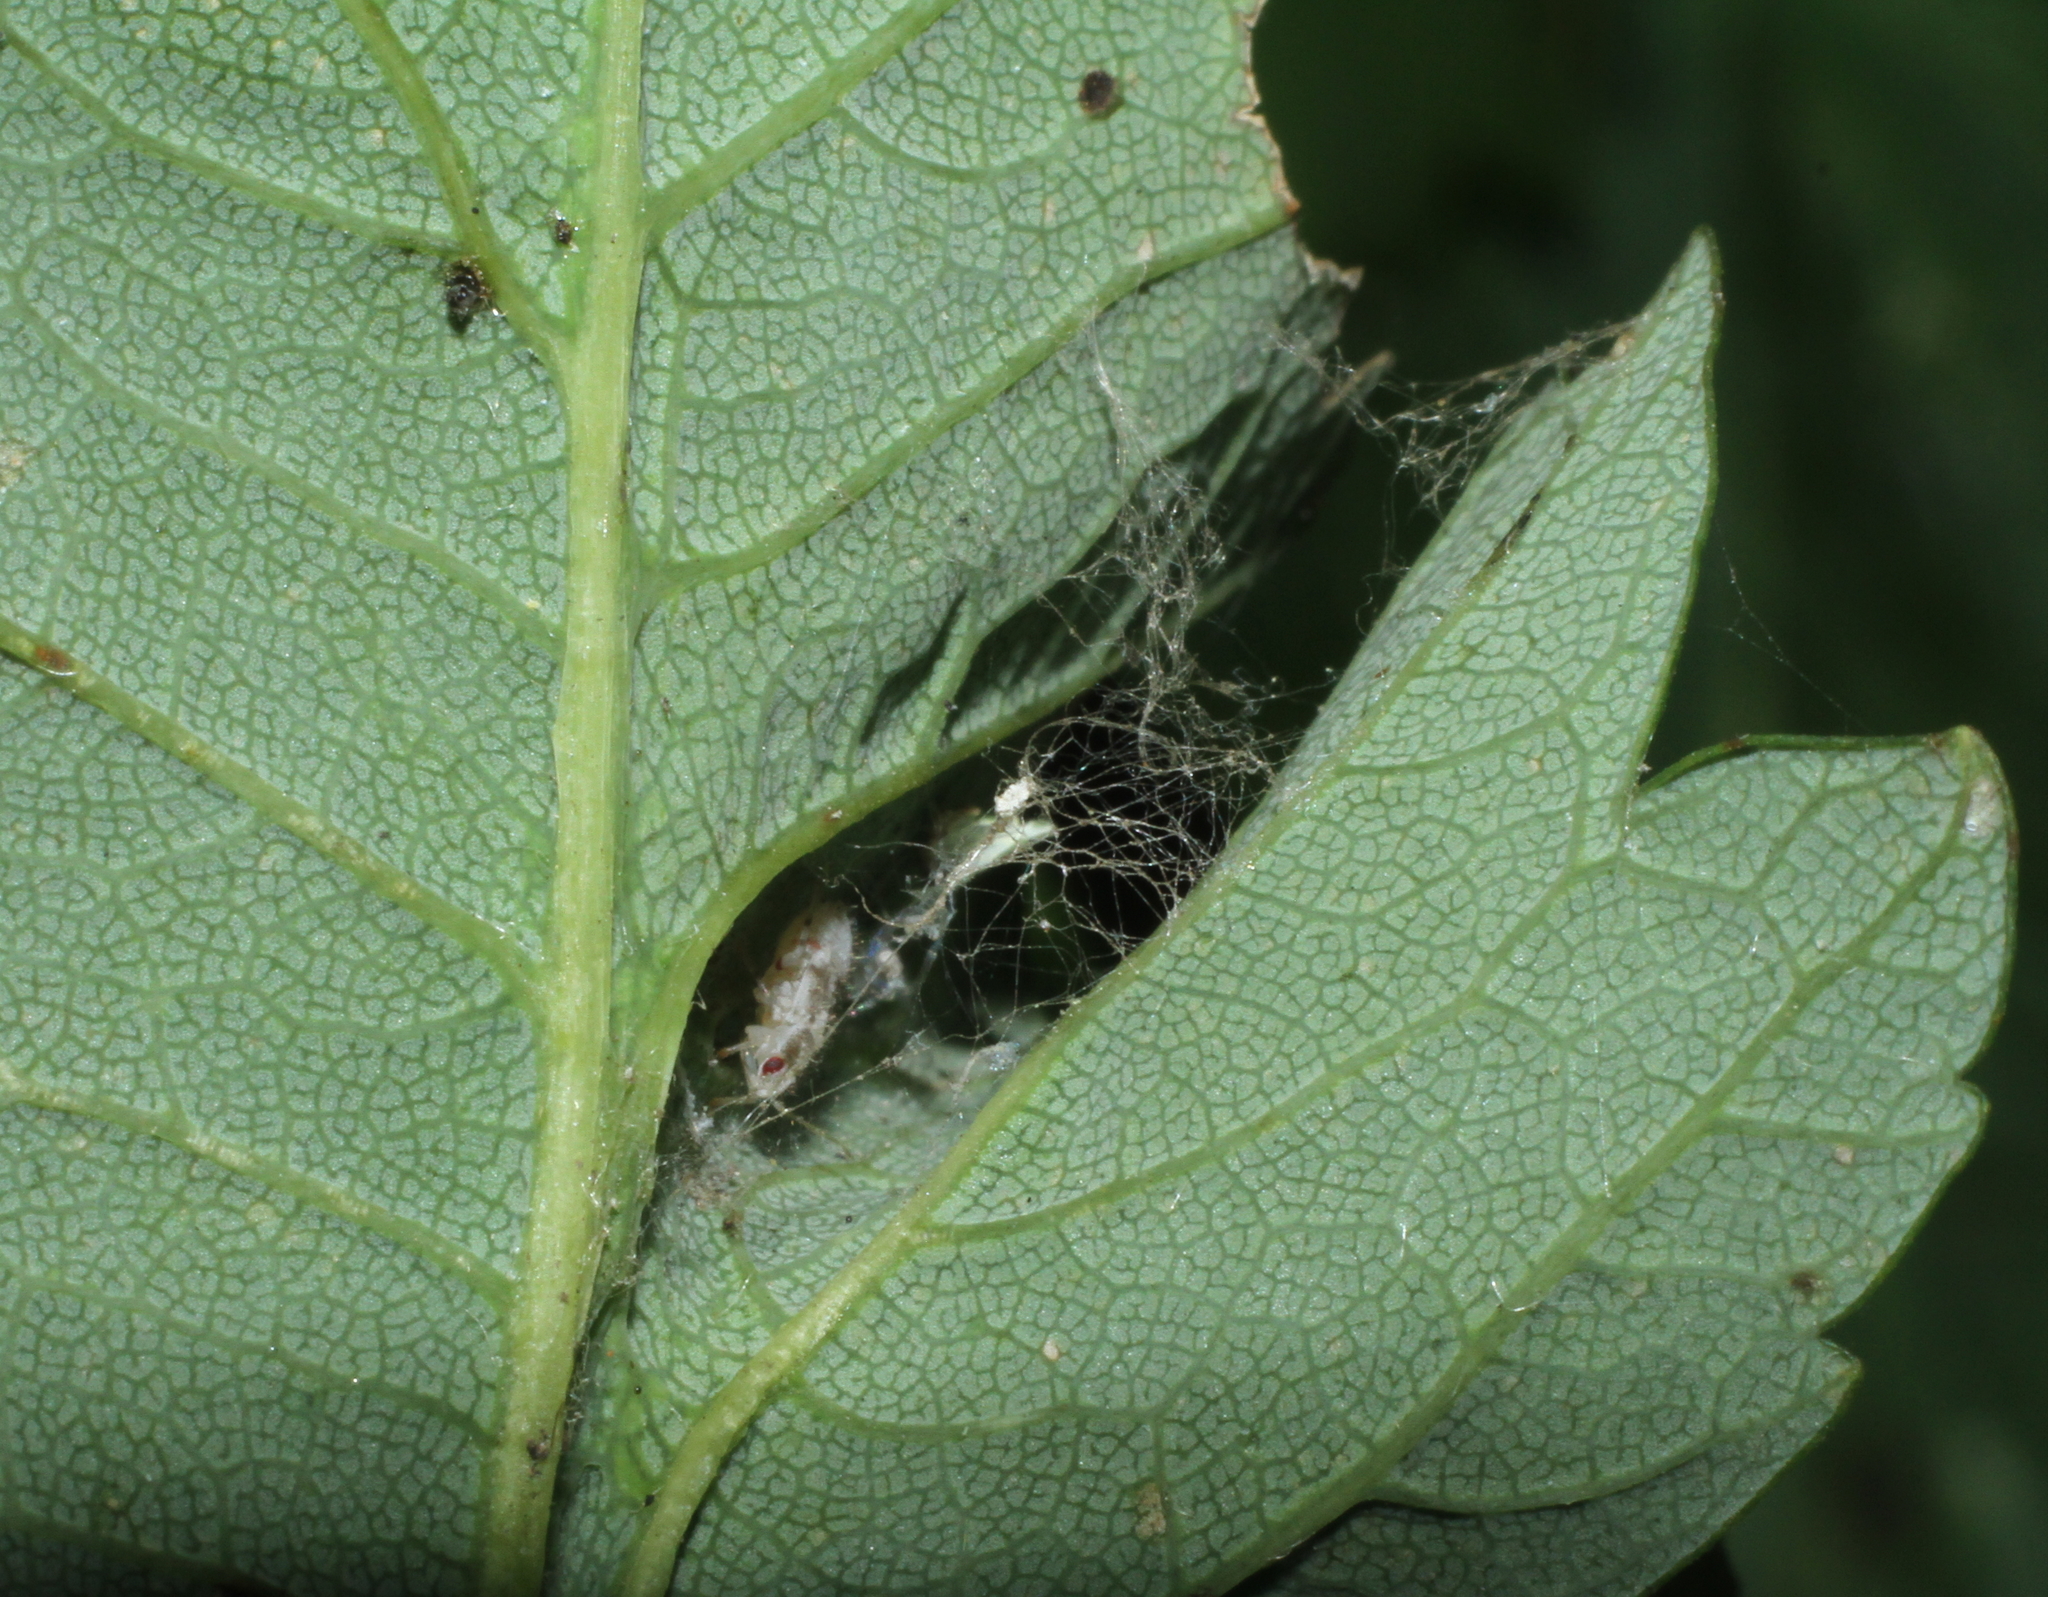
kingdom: Animalia
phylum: Arthropoda
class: Insecta
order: Hemiptera
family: Miridae
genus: Deraeocoris
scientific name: Deraeocoris lutescens
